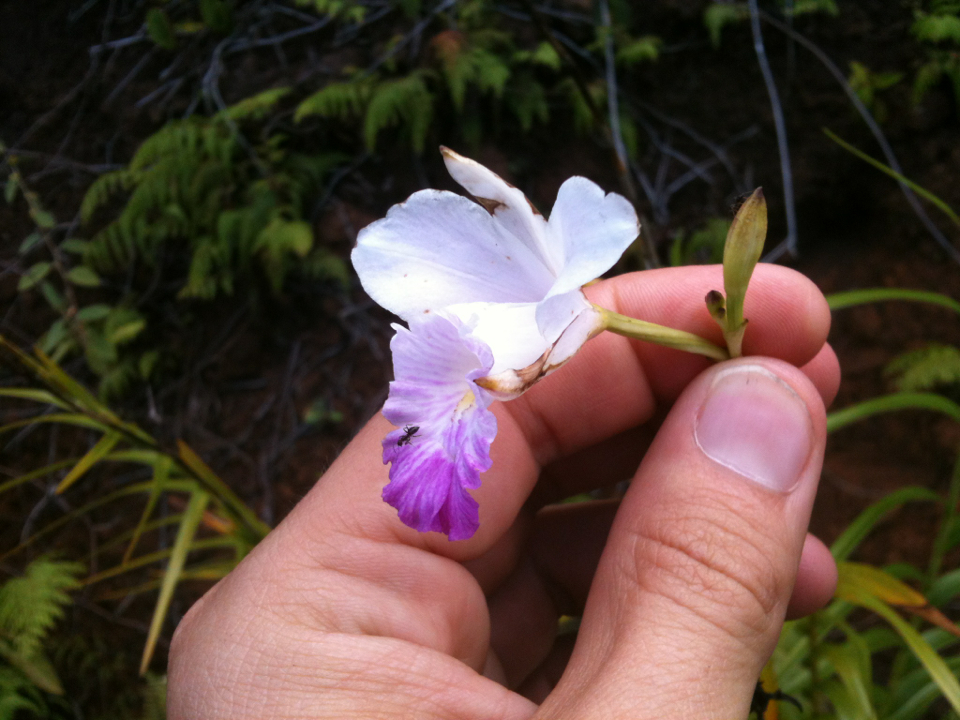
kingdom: Plantae
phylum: Tracheophyta
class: Liliopsida
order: Asparagales
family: Orchidaceae
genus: Arundina
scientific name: Arundina graminifolia
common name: Bamboo orchid
